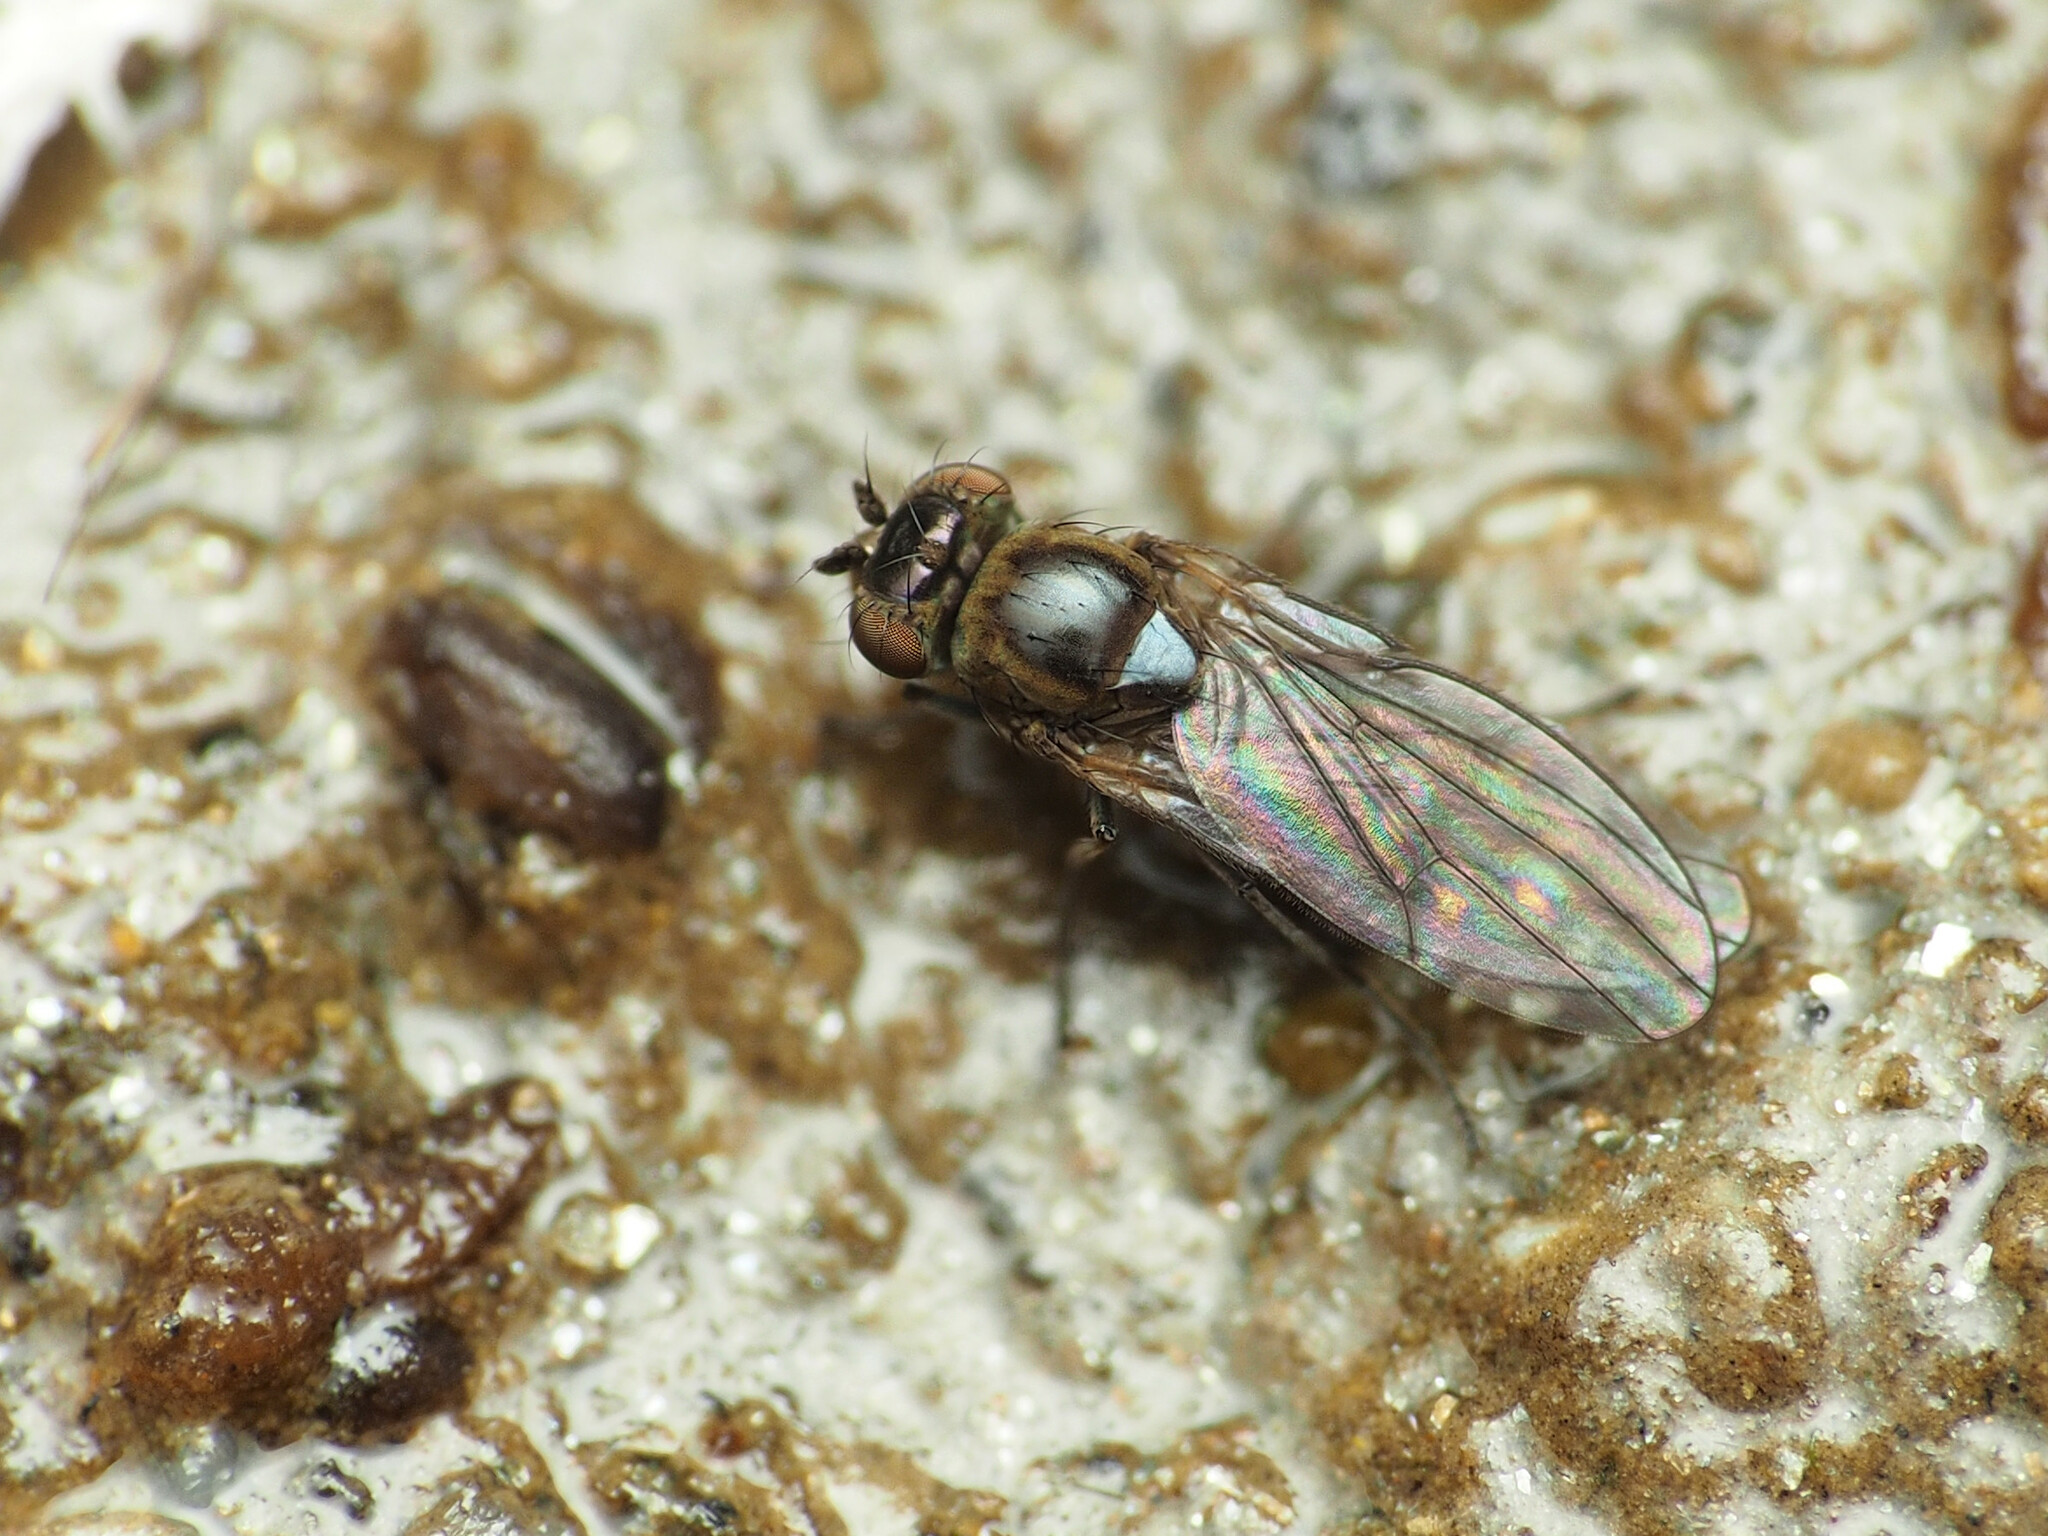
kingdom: Animalia
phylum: Arthropoda
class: Insecta
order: Diptera
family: Ephydridae
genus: Scatella
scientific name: Scatella favillacea
